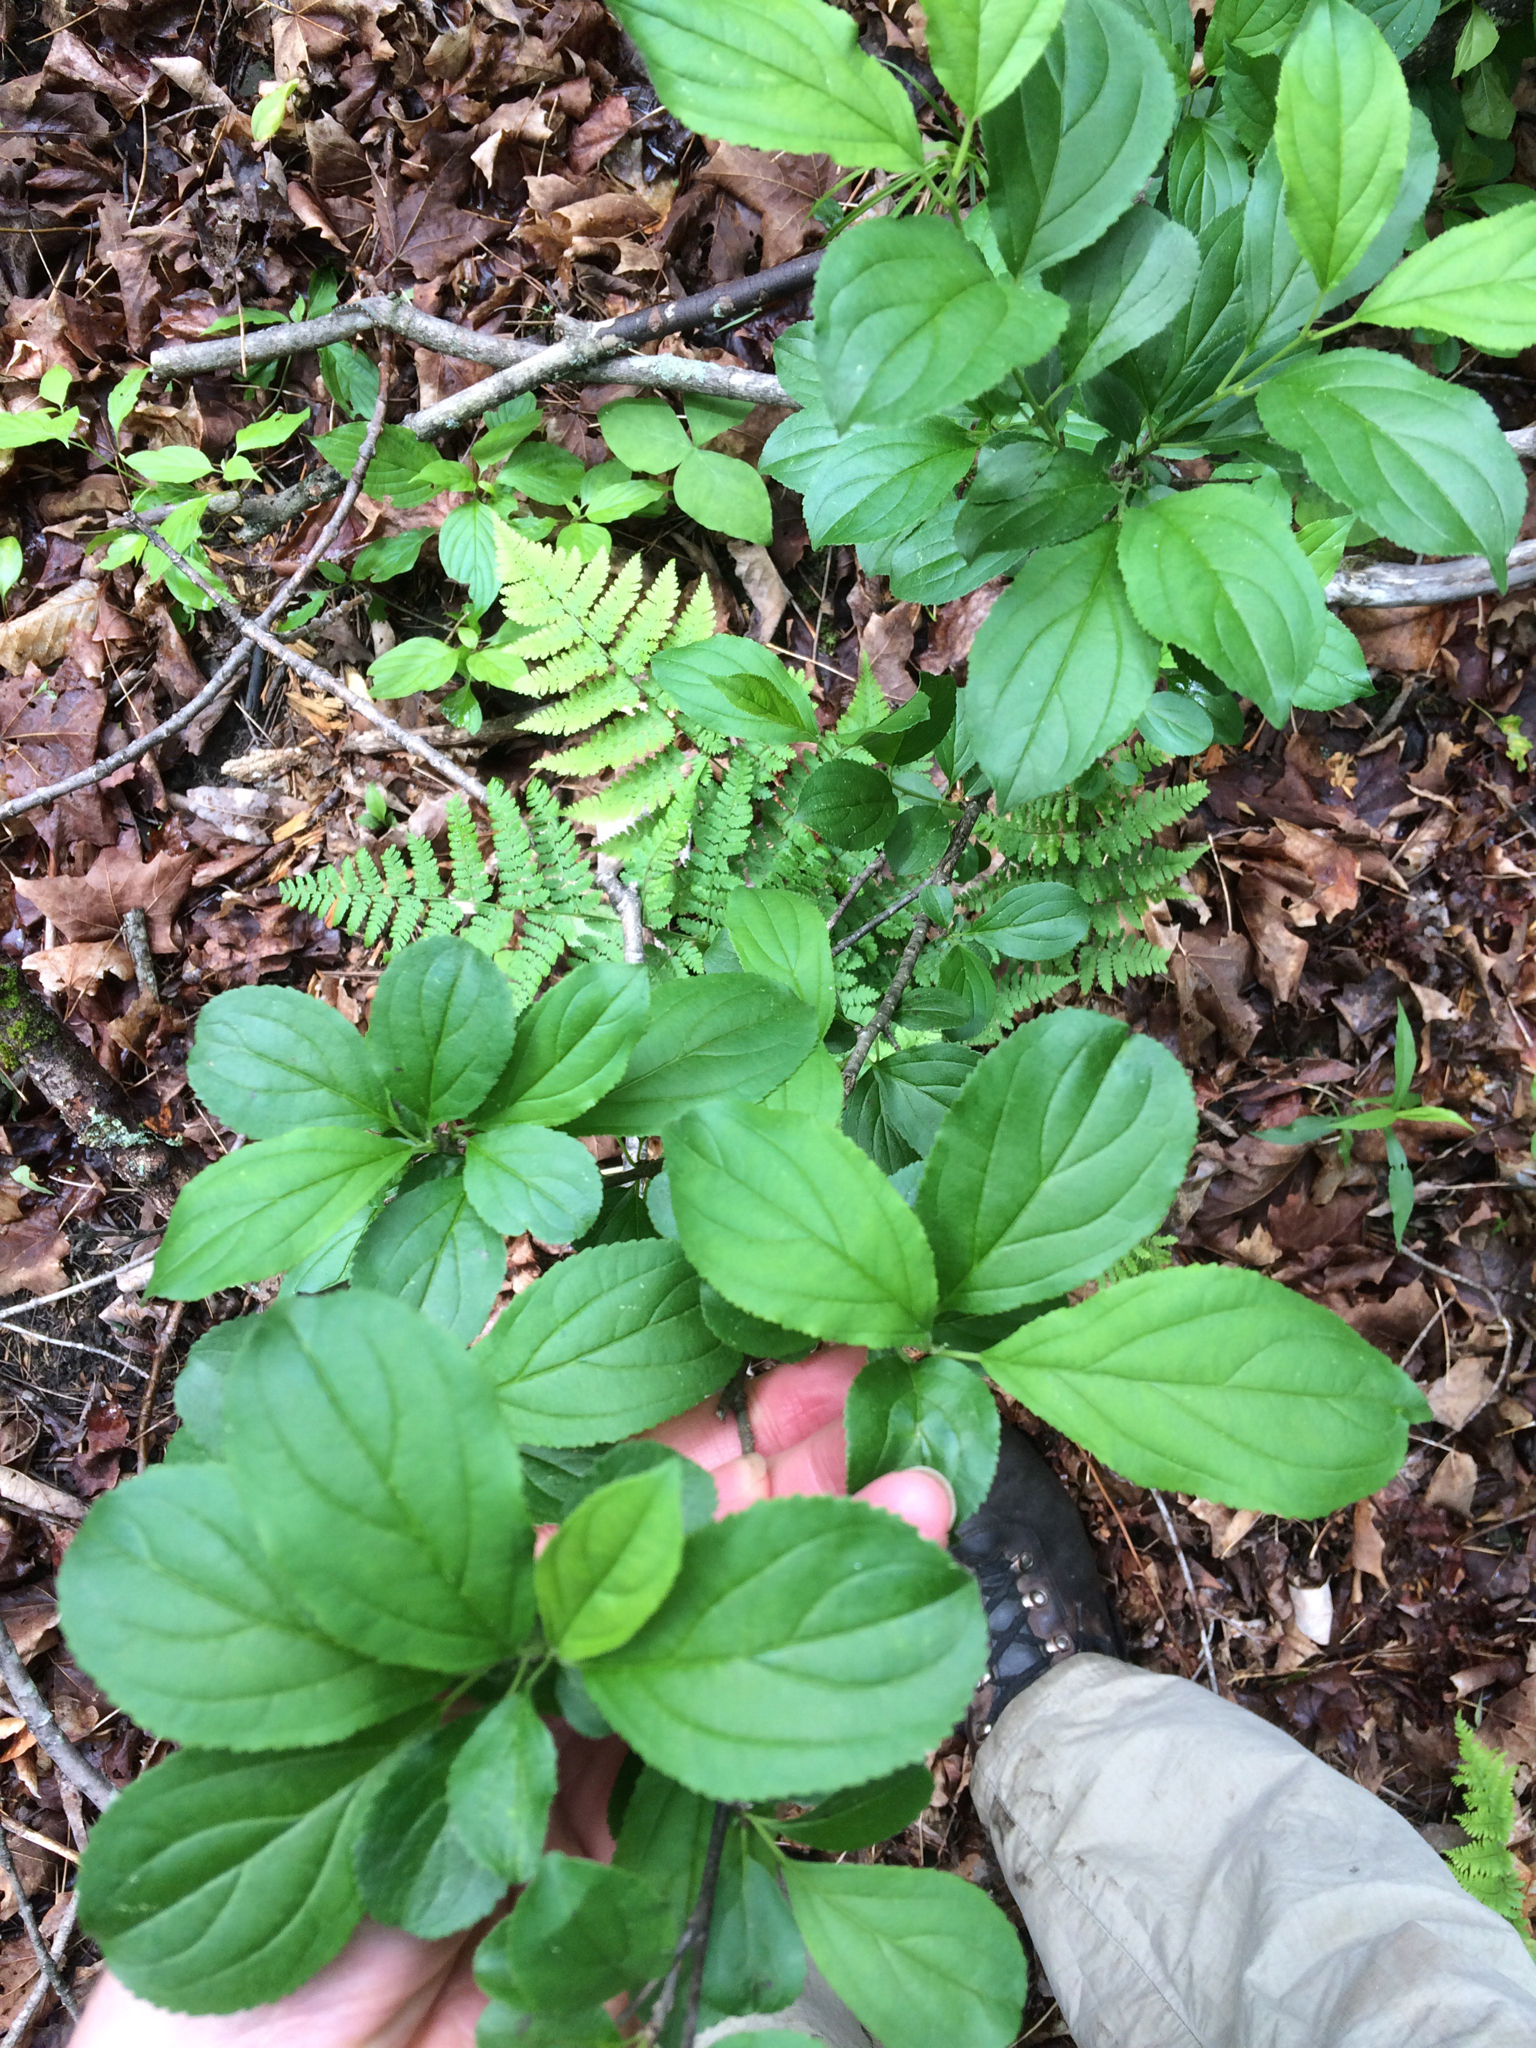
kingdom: Plantae
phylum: Tracheophyta
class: Magnoliopsida
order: Rosales
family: Rhamnaceae
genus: Rhamnus
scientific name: Rhamnus cathartica
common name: Common buckthorn
